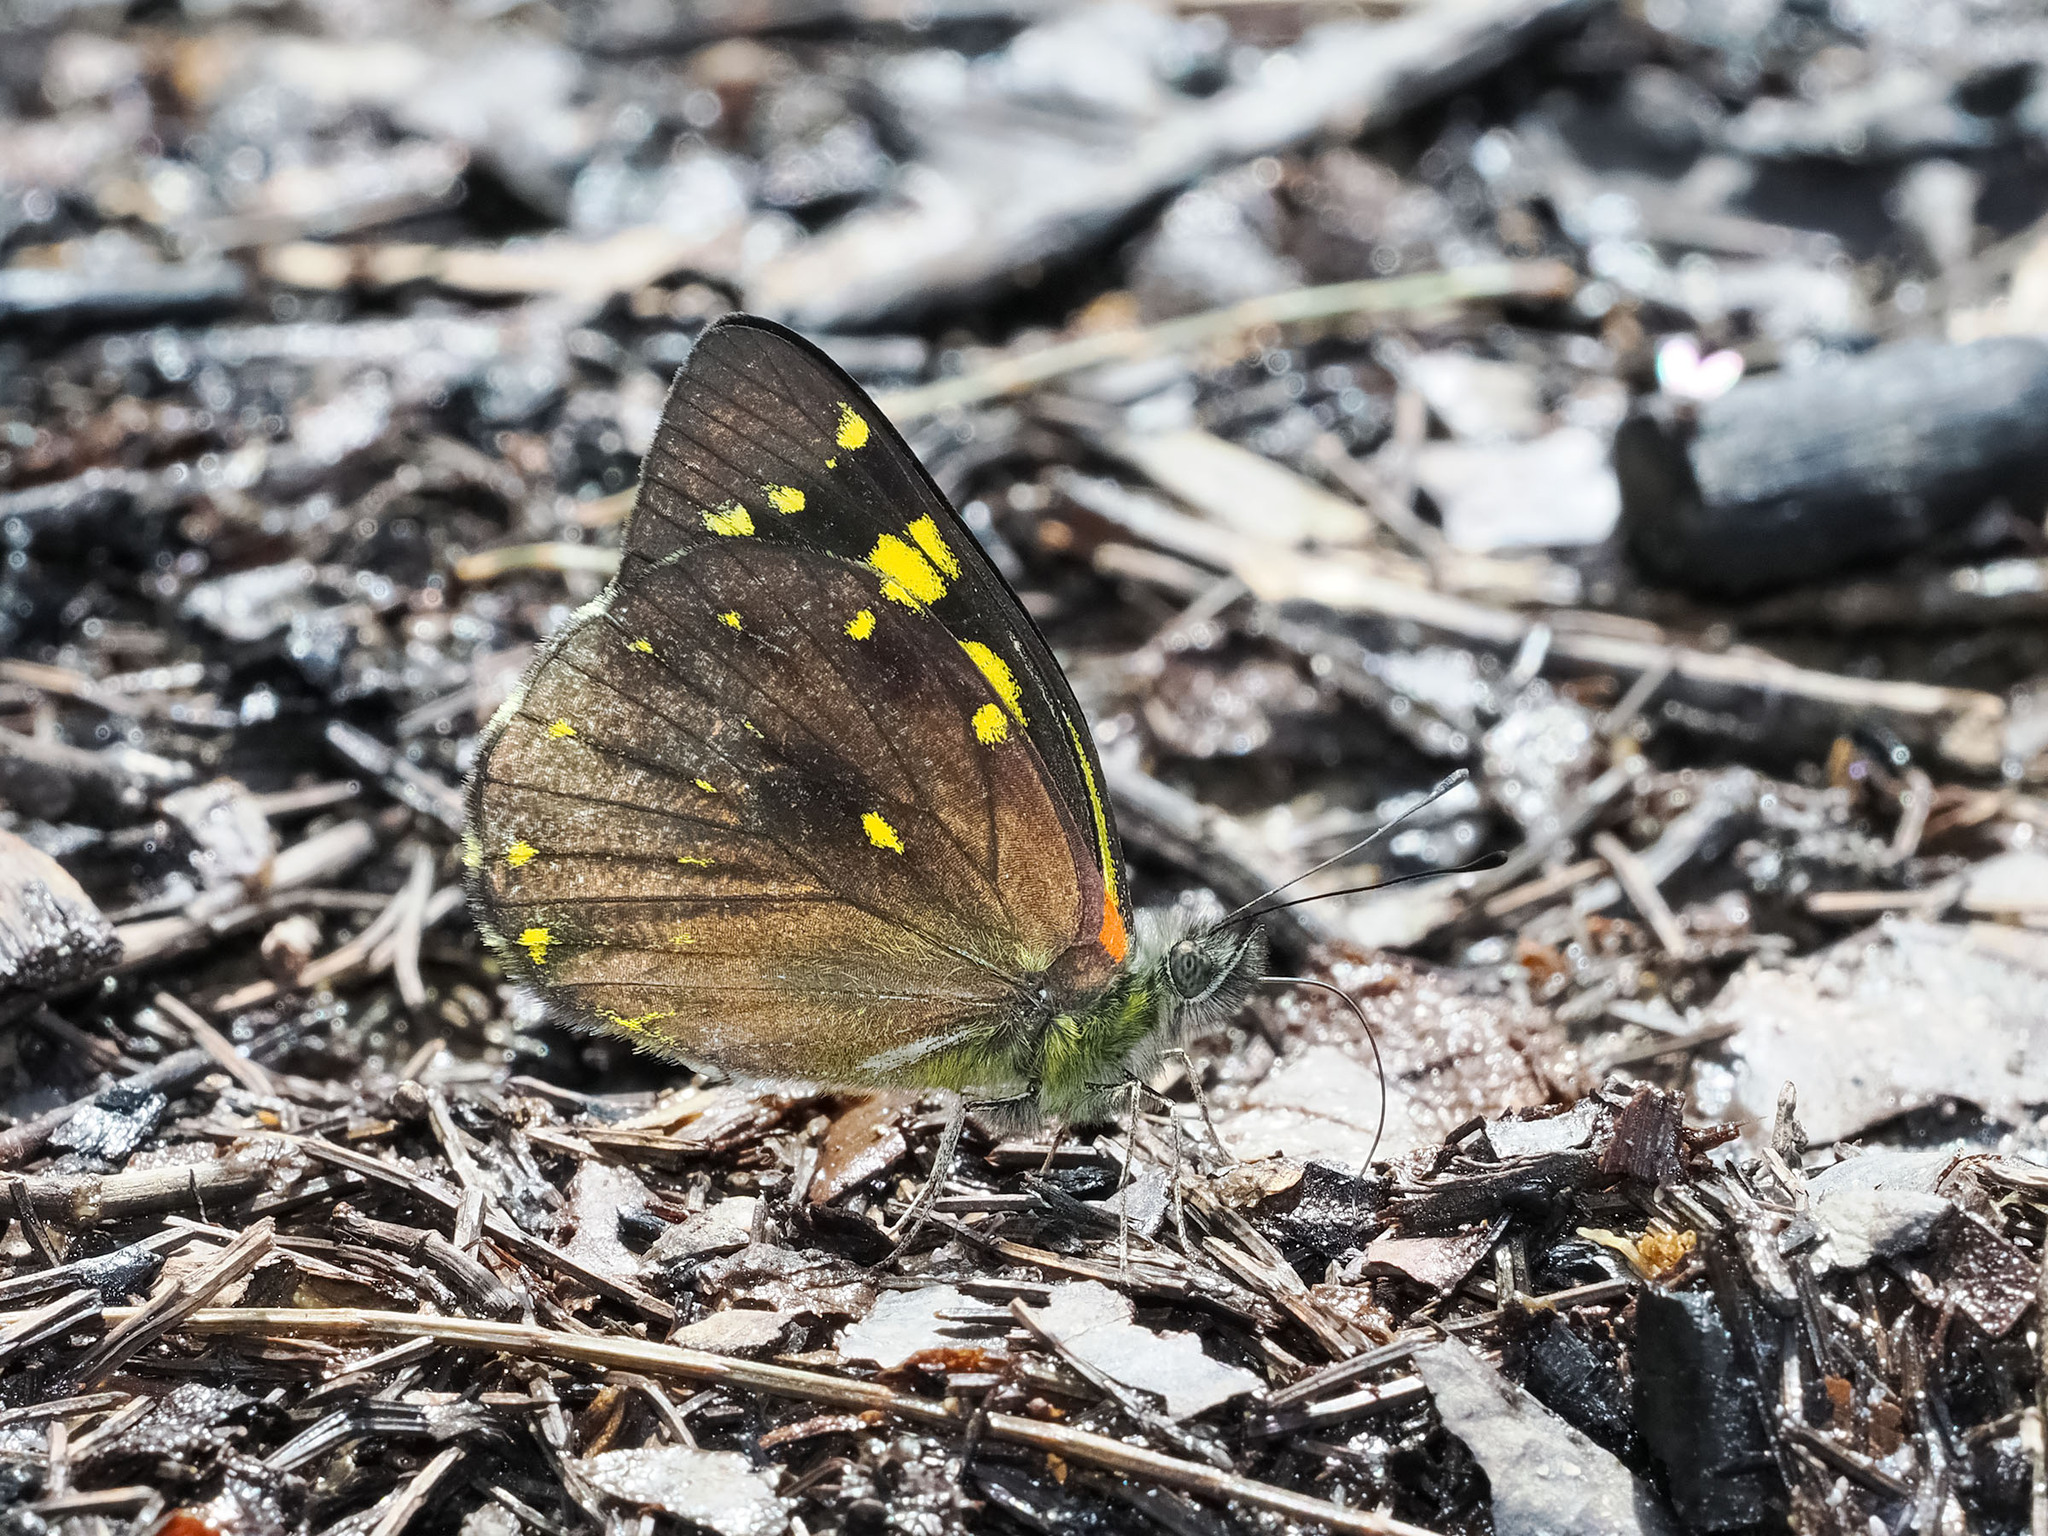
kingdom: Animalia
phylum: Arthropoda
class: Insecta
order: Lepidoptera
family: Pieridae
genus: Delias
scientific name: Delias microsticha
